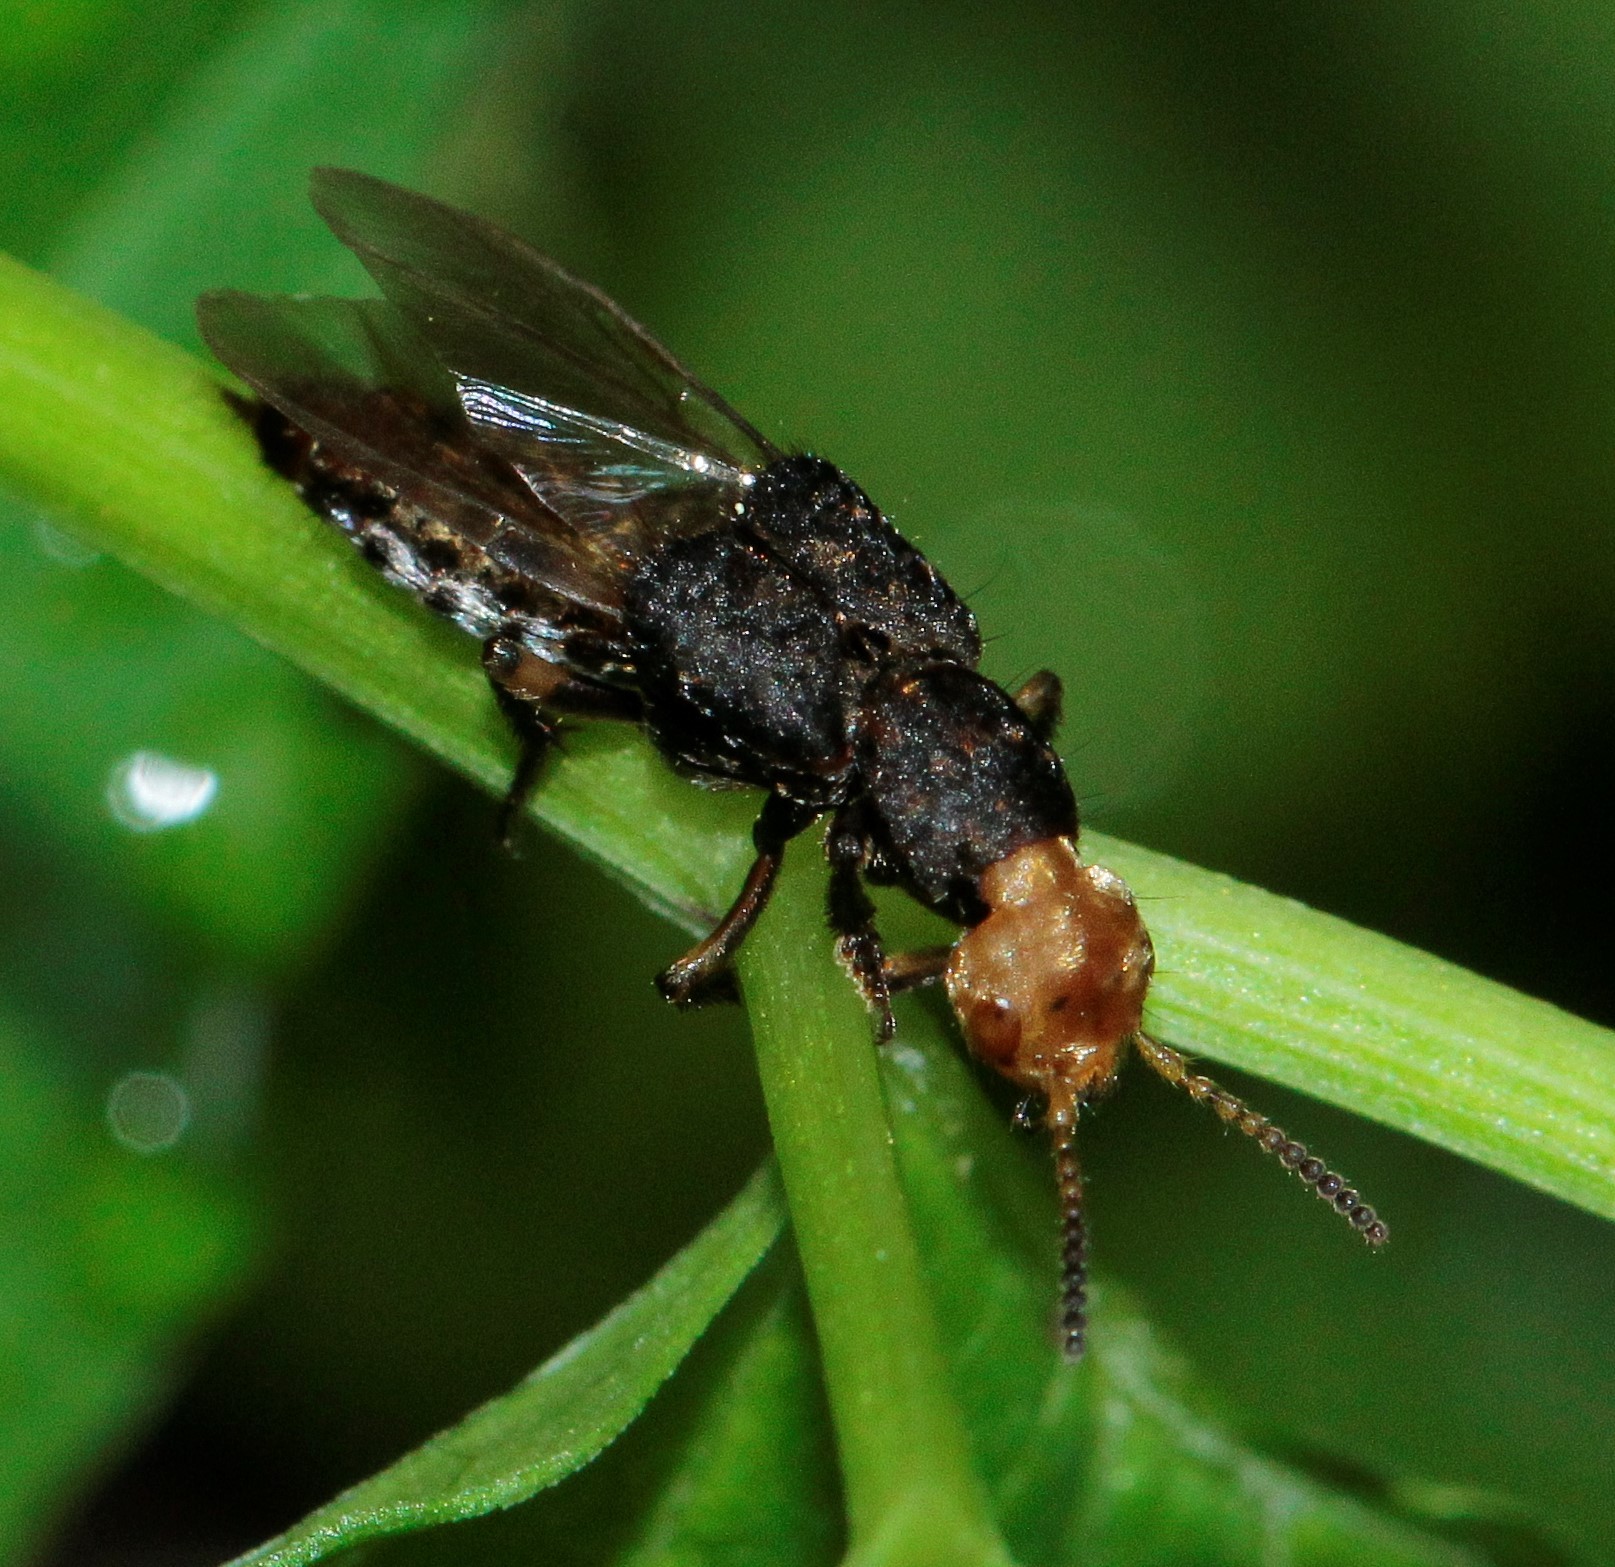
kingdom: Animalia
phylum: Arthropoda
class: Insecta
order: Coleoptera
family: Staphylinidae
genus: Dinothenarus
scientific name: Dinothenarus flavocephalus
